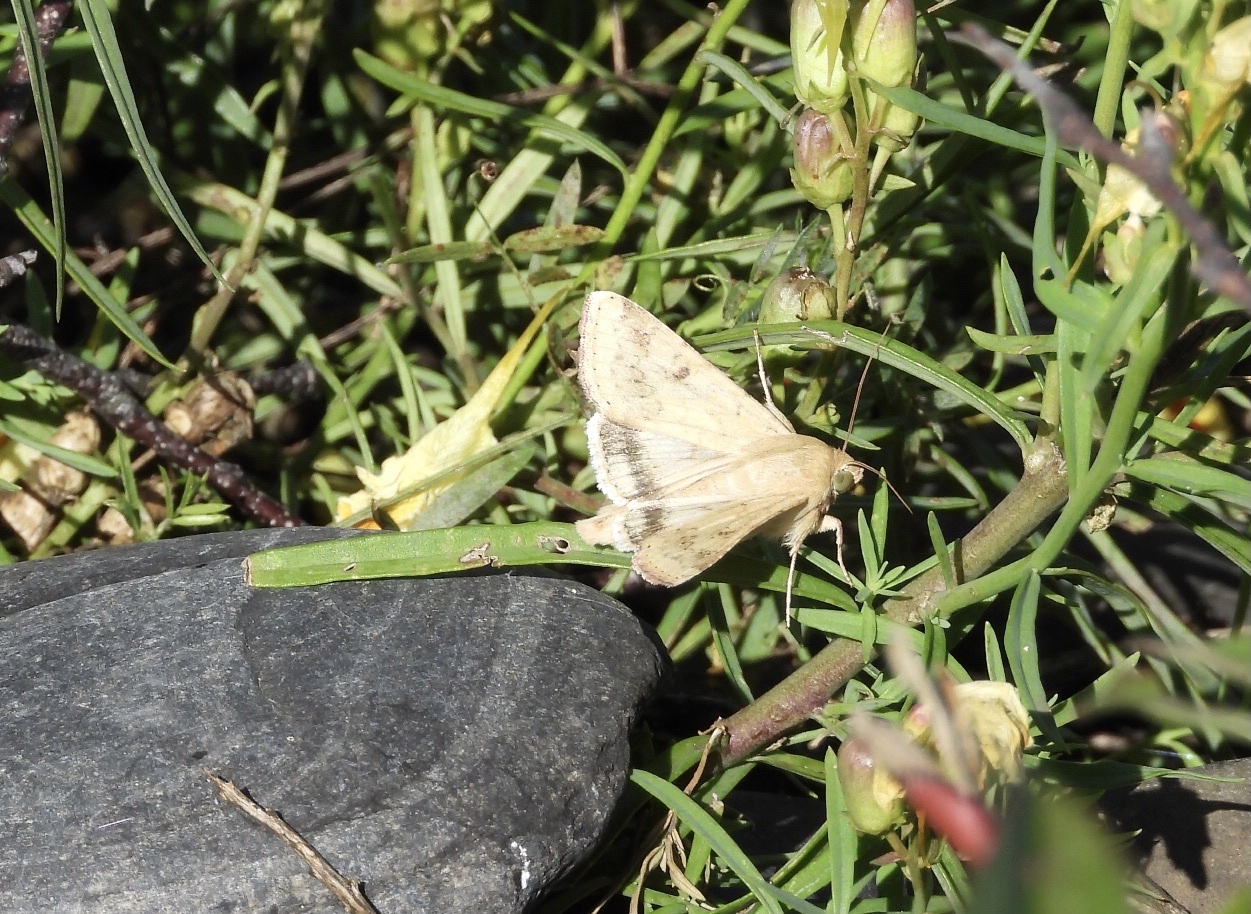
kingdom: Animalia
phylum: Arthropoda
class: Insecta
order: Lepidoptera
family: Noctuidae
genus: Helicoverpa
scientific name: Helicoverpa zea
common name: Bollworm
